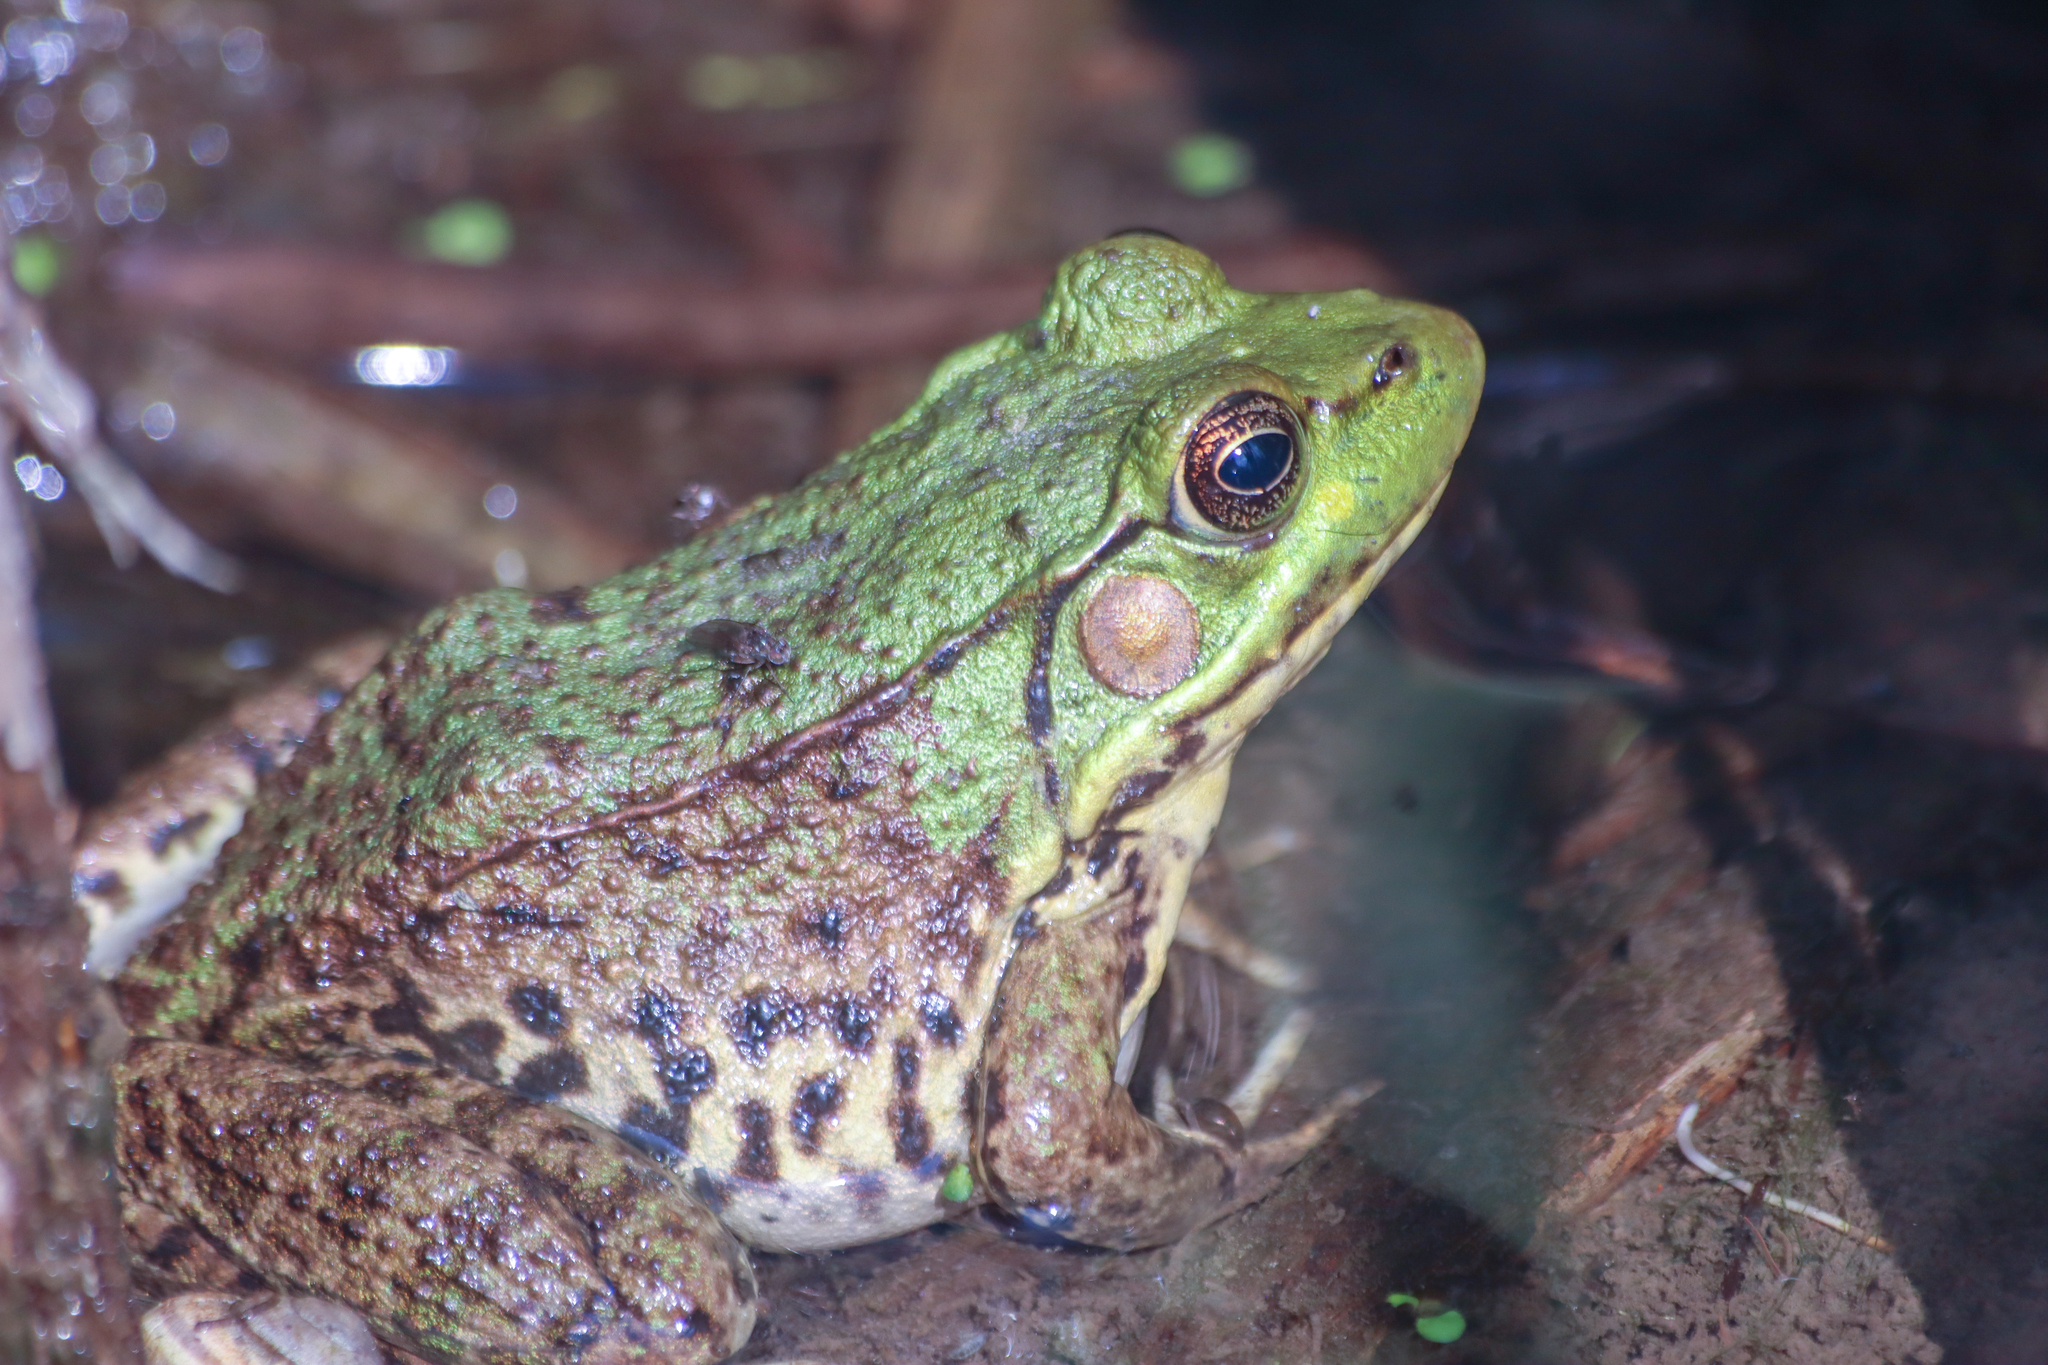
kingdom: Animalia
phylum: Chordata
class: Amphibia
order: Anura
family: Ranidae
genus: Lithobates
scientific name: Lithobates clamitans
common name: Green frog
